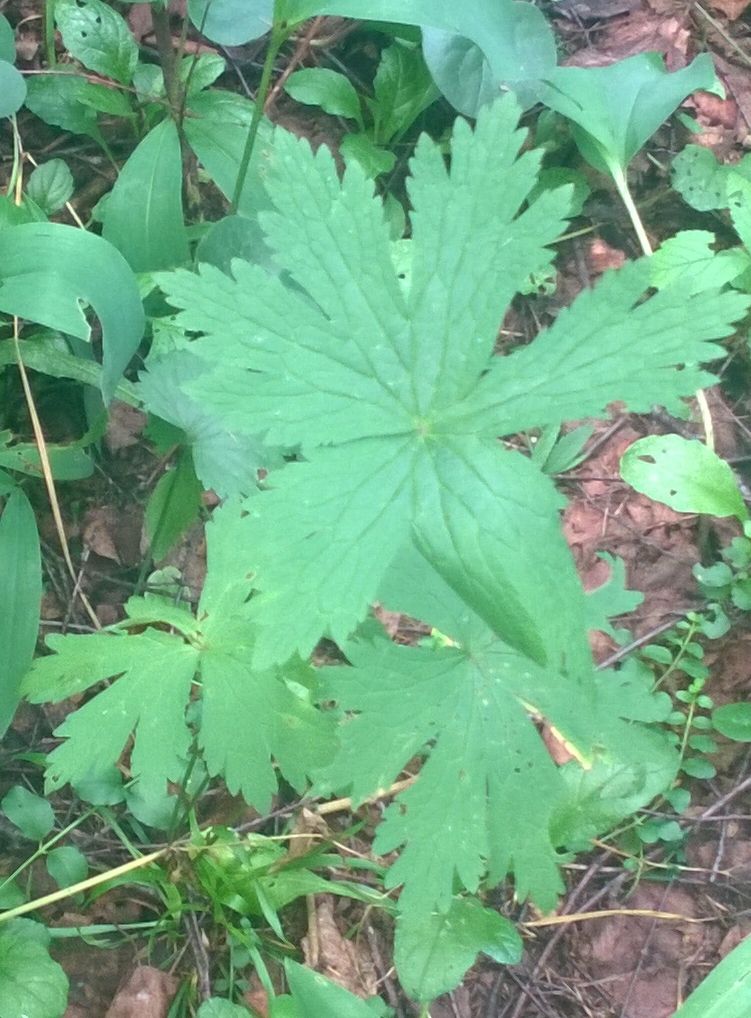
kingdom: Plantae
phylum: Tracheophyta
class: Magnoliopsida
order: Geraniales
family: Geraniaceae
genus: Geranium
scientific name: Geranium sylvaticum
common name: Wood crane's-bill
